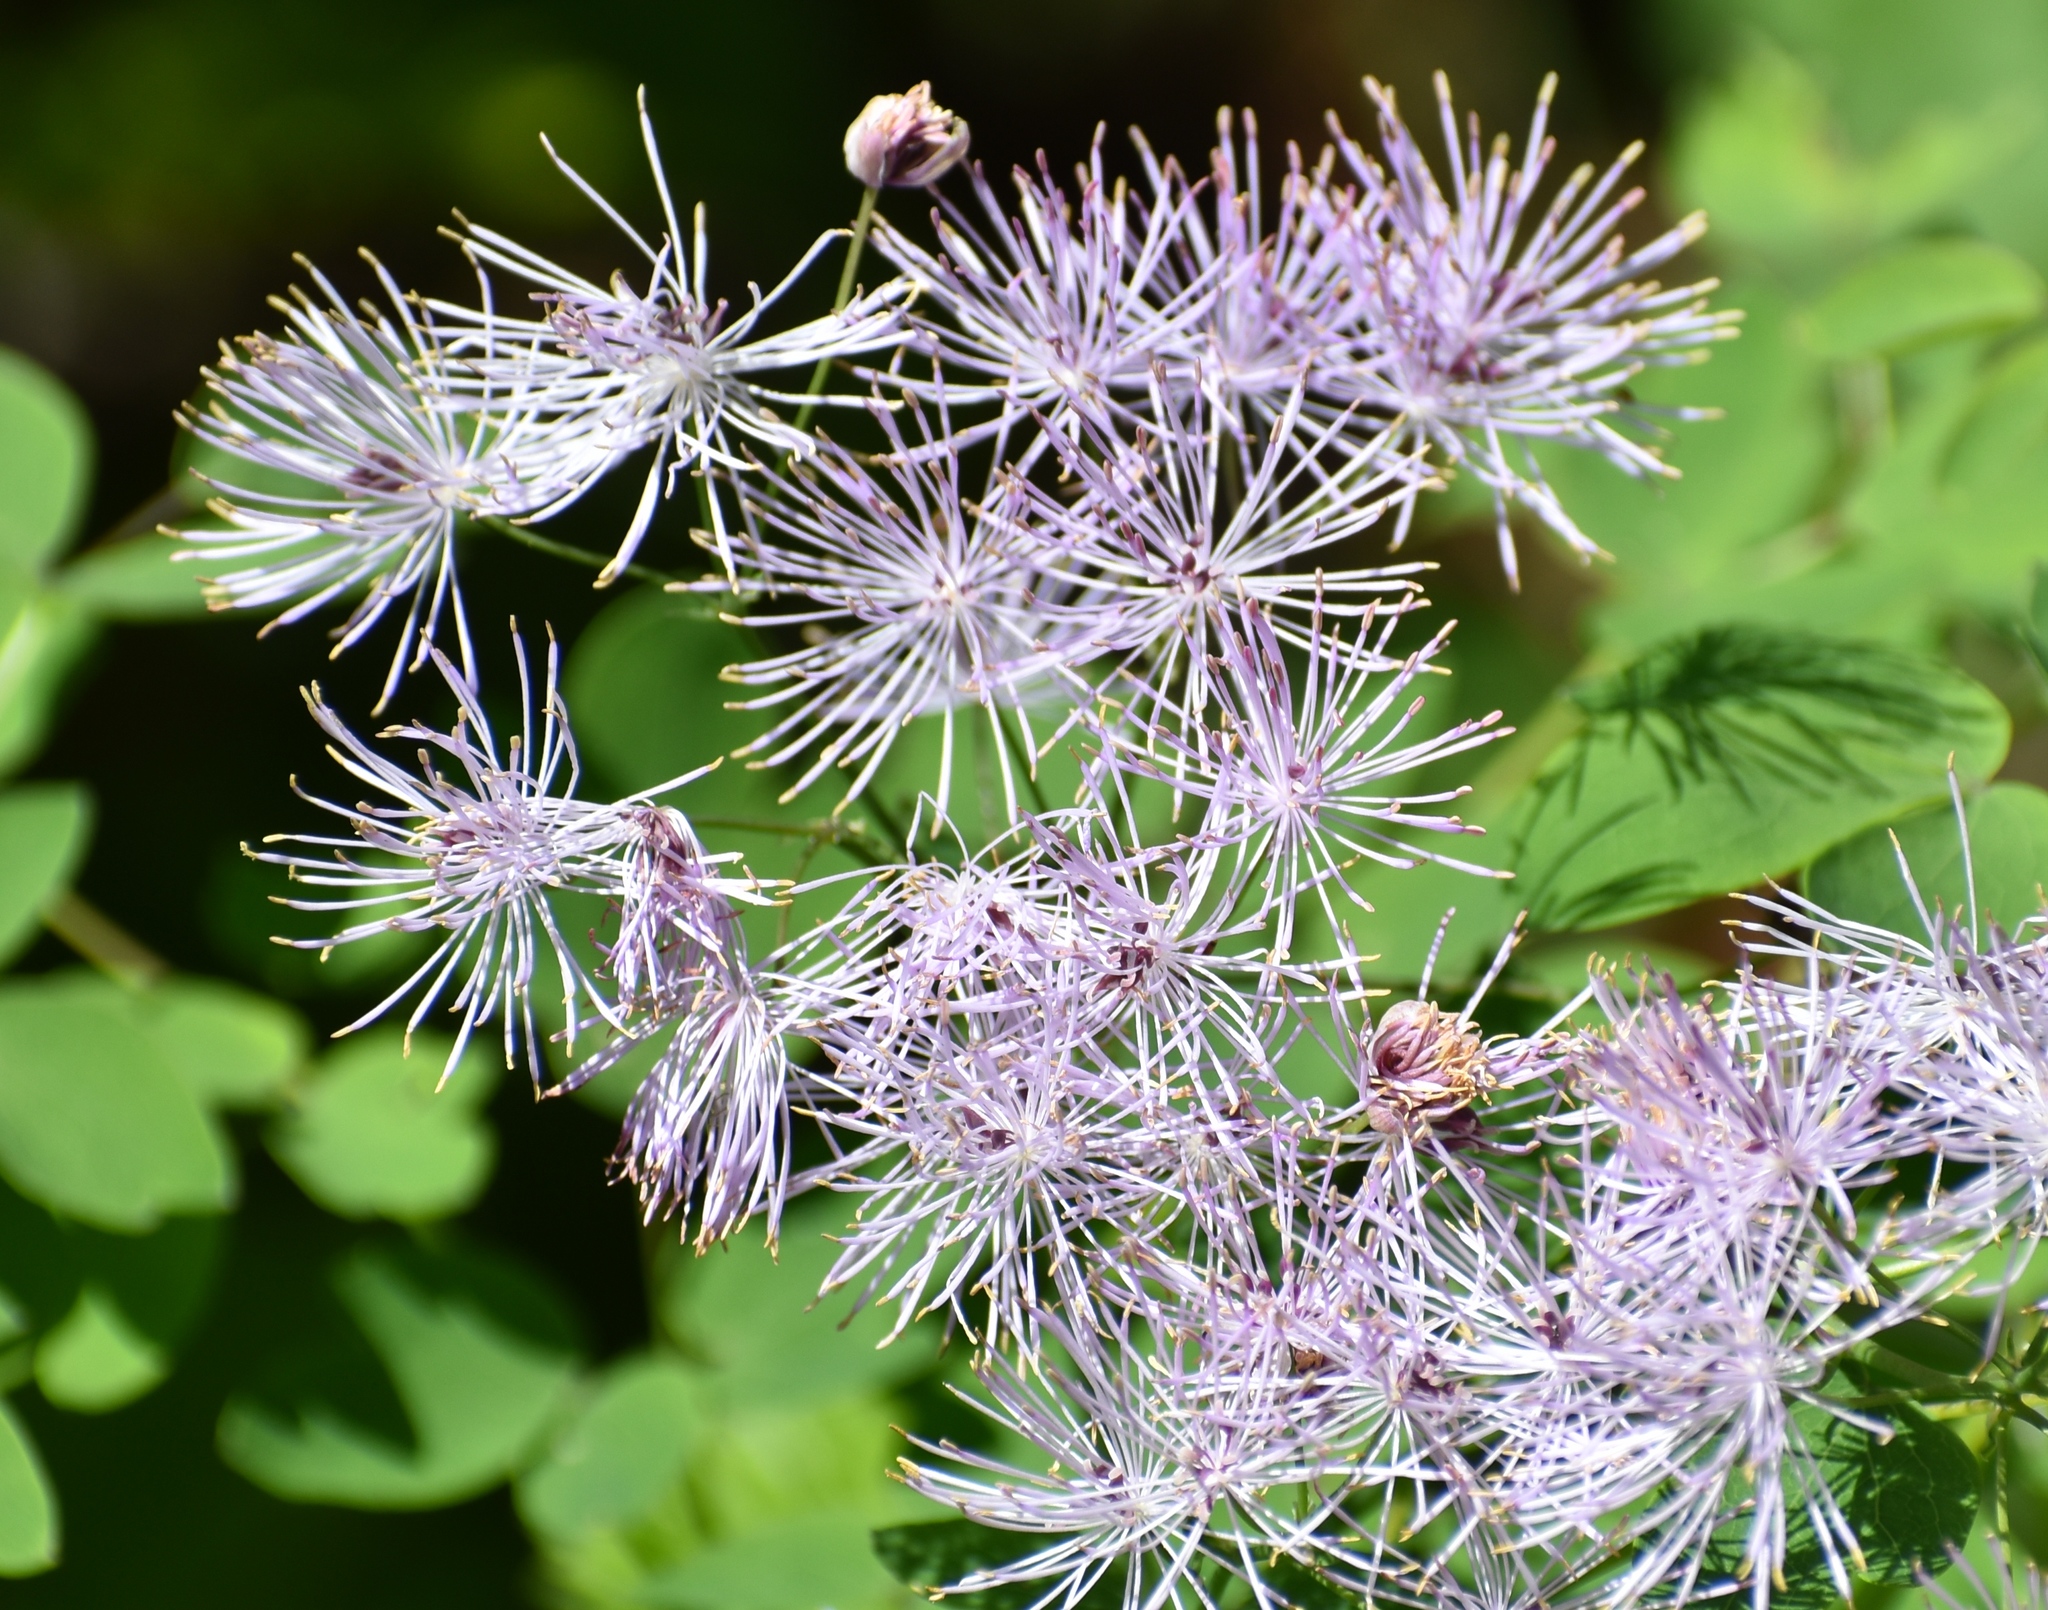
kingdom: Plantae
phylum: Tracheophyta
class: Magnoliopsida
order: Ranunculales
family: Ranunculaceae
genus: Thalictrum
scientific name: Thalictrum aquilegiifolium
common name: French meadow-rue
